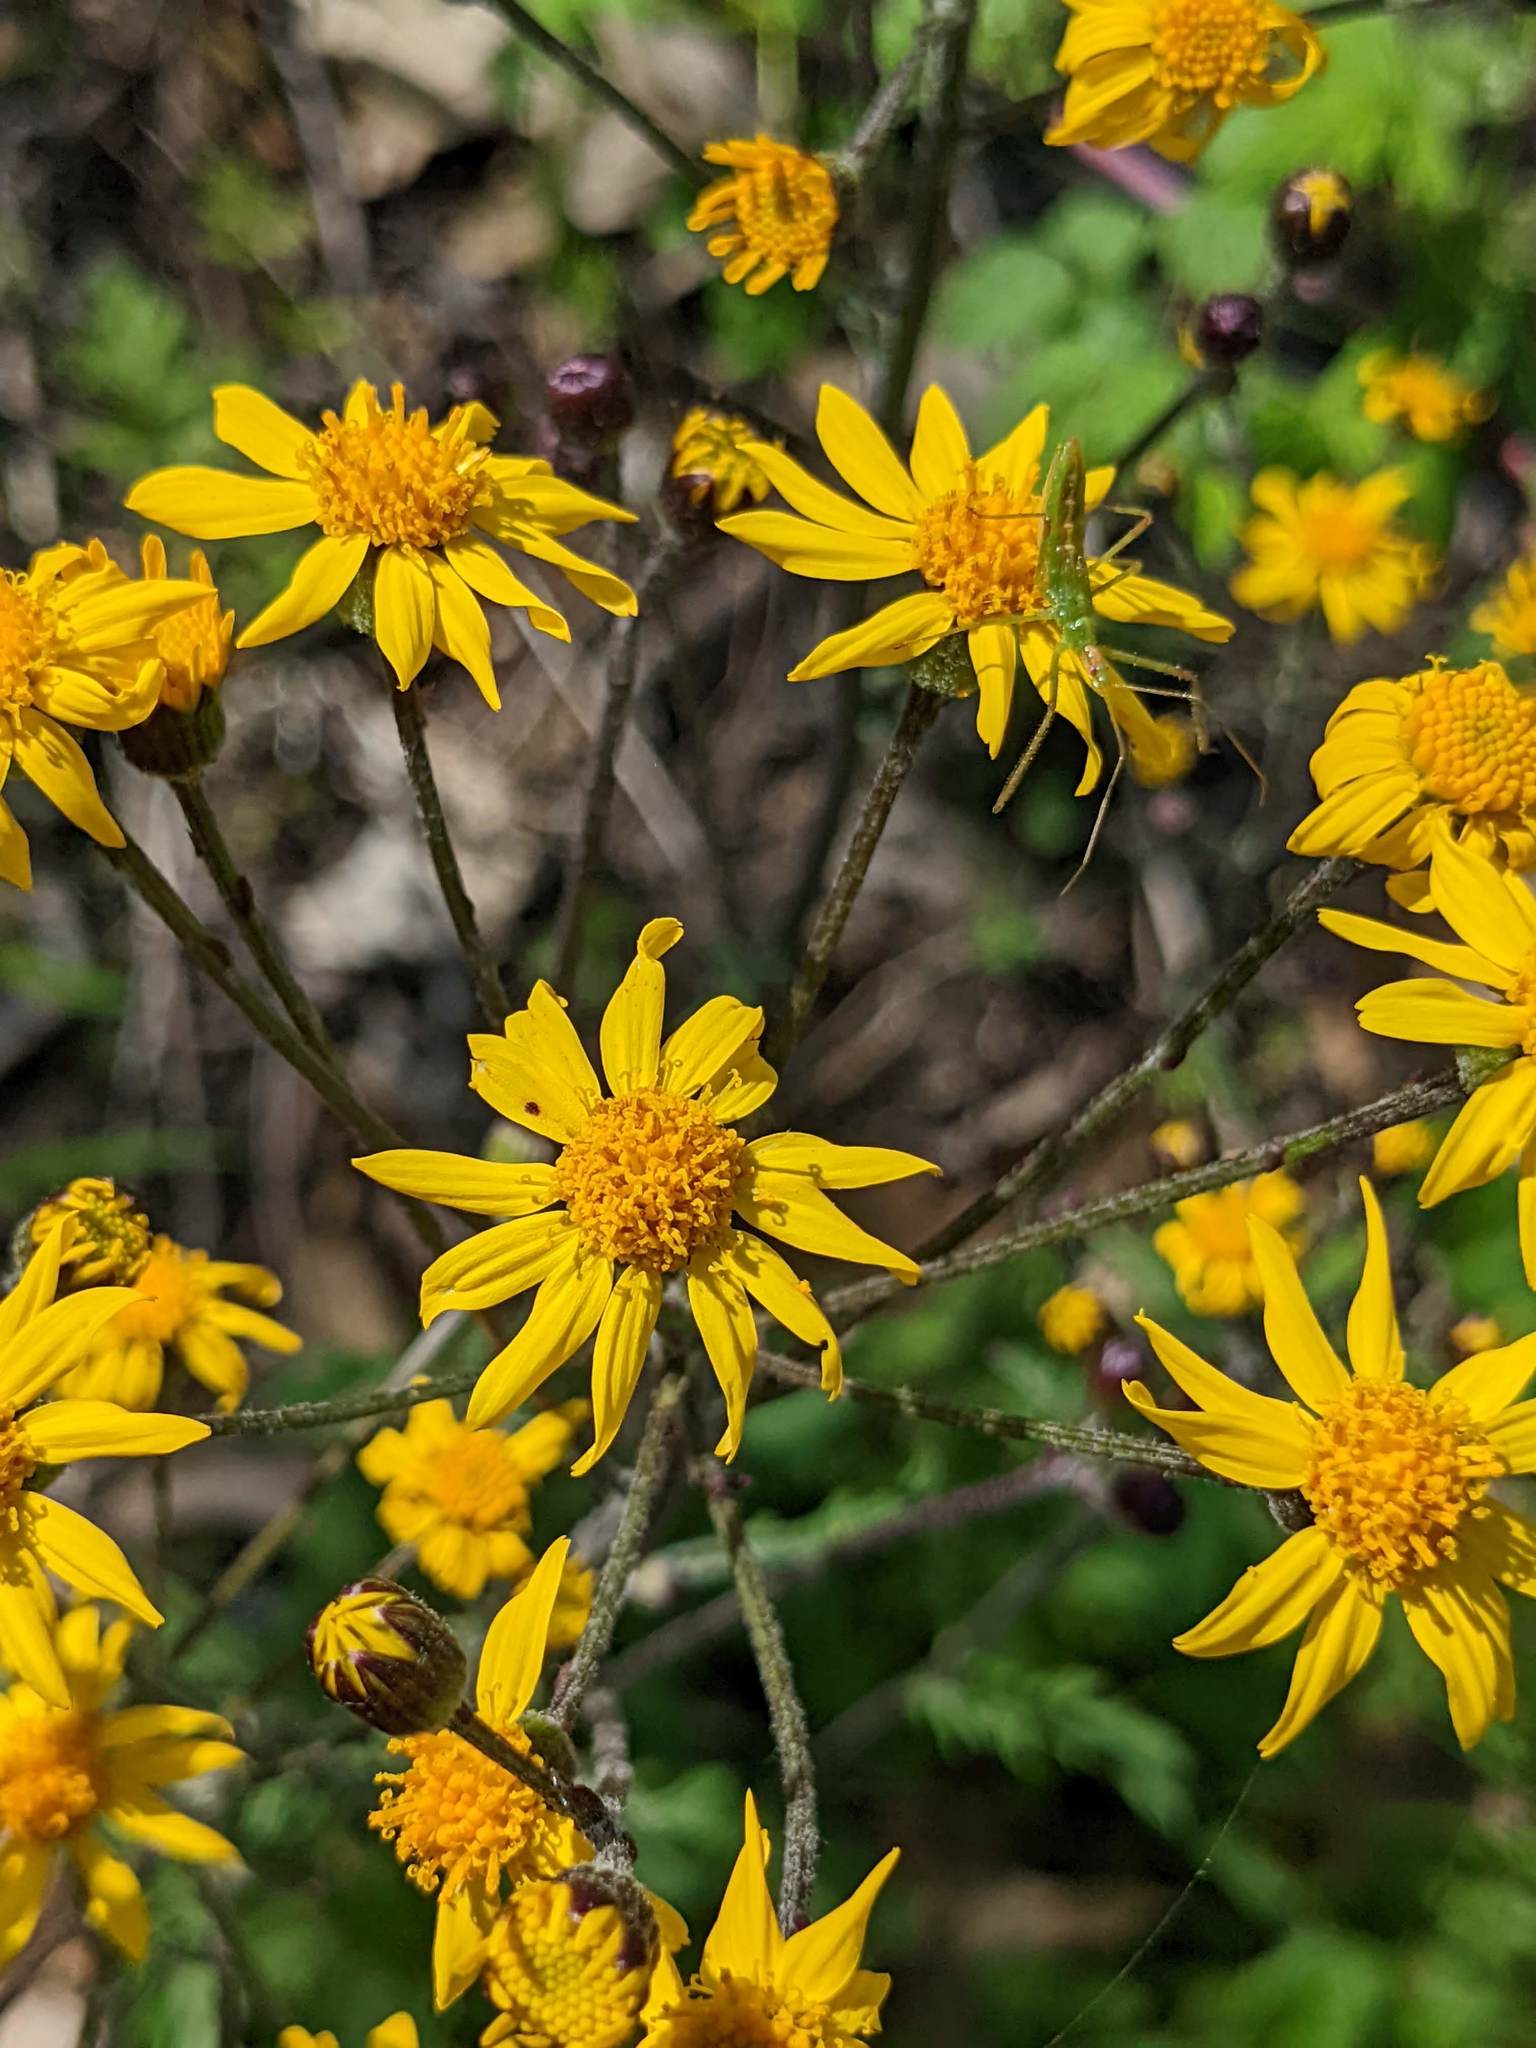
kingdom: Plantae
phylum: Tracheophyta
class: Magnoliopsida
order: Asterales
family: Asteraceae
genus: Packera
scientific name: Packera aurea
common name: Golden groundsel
